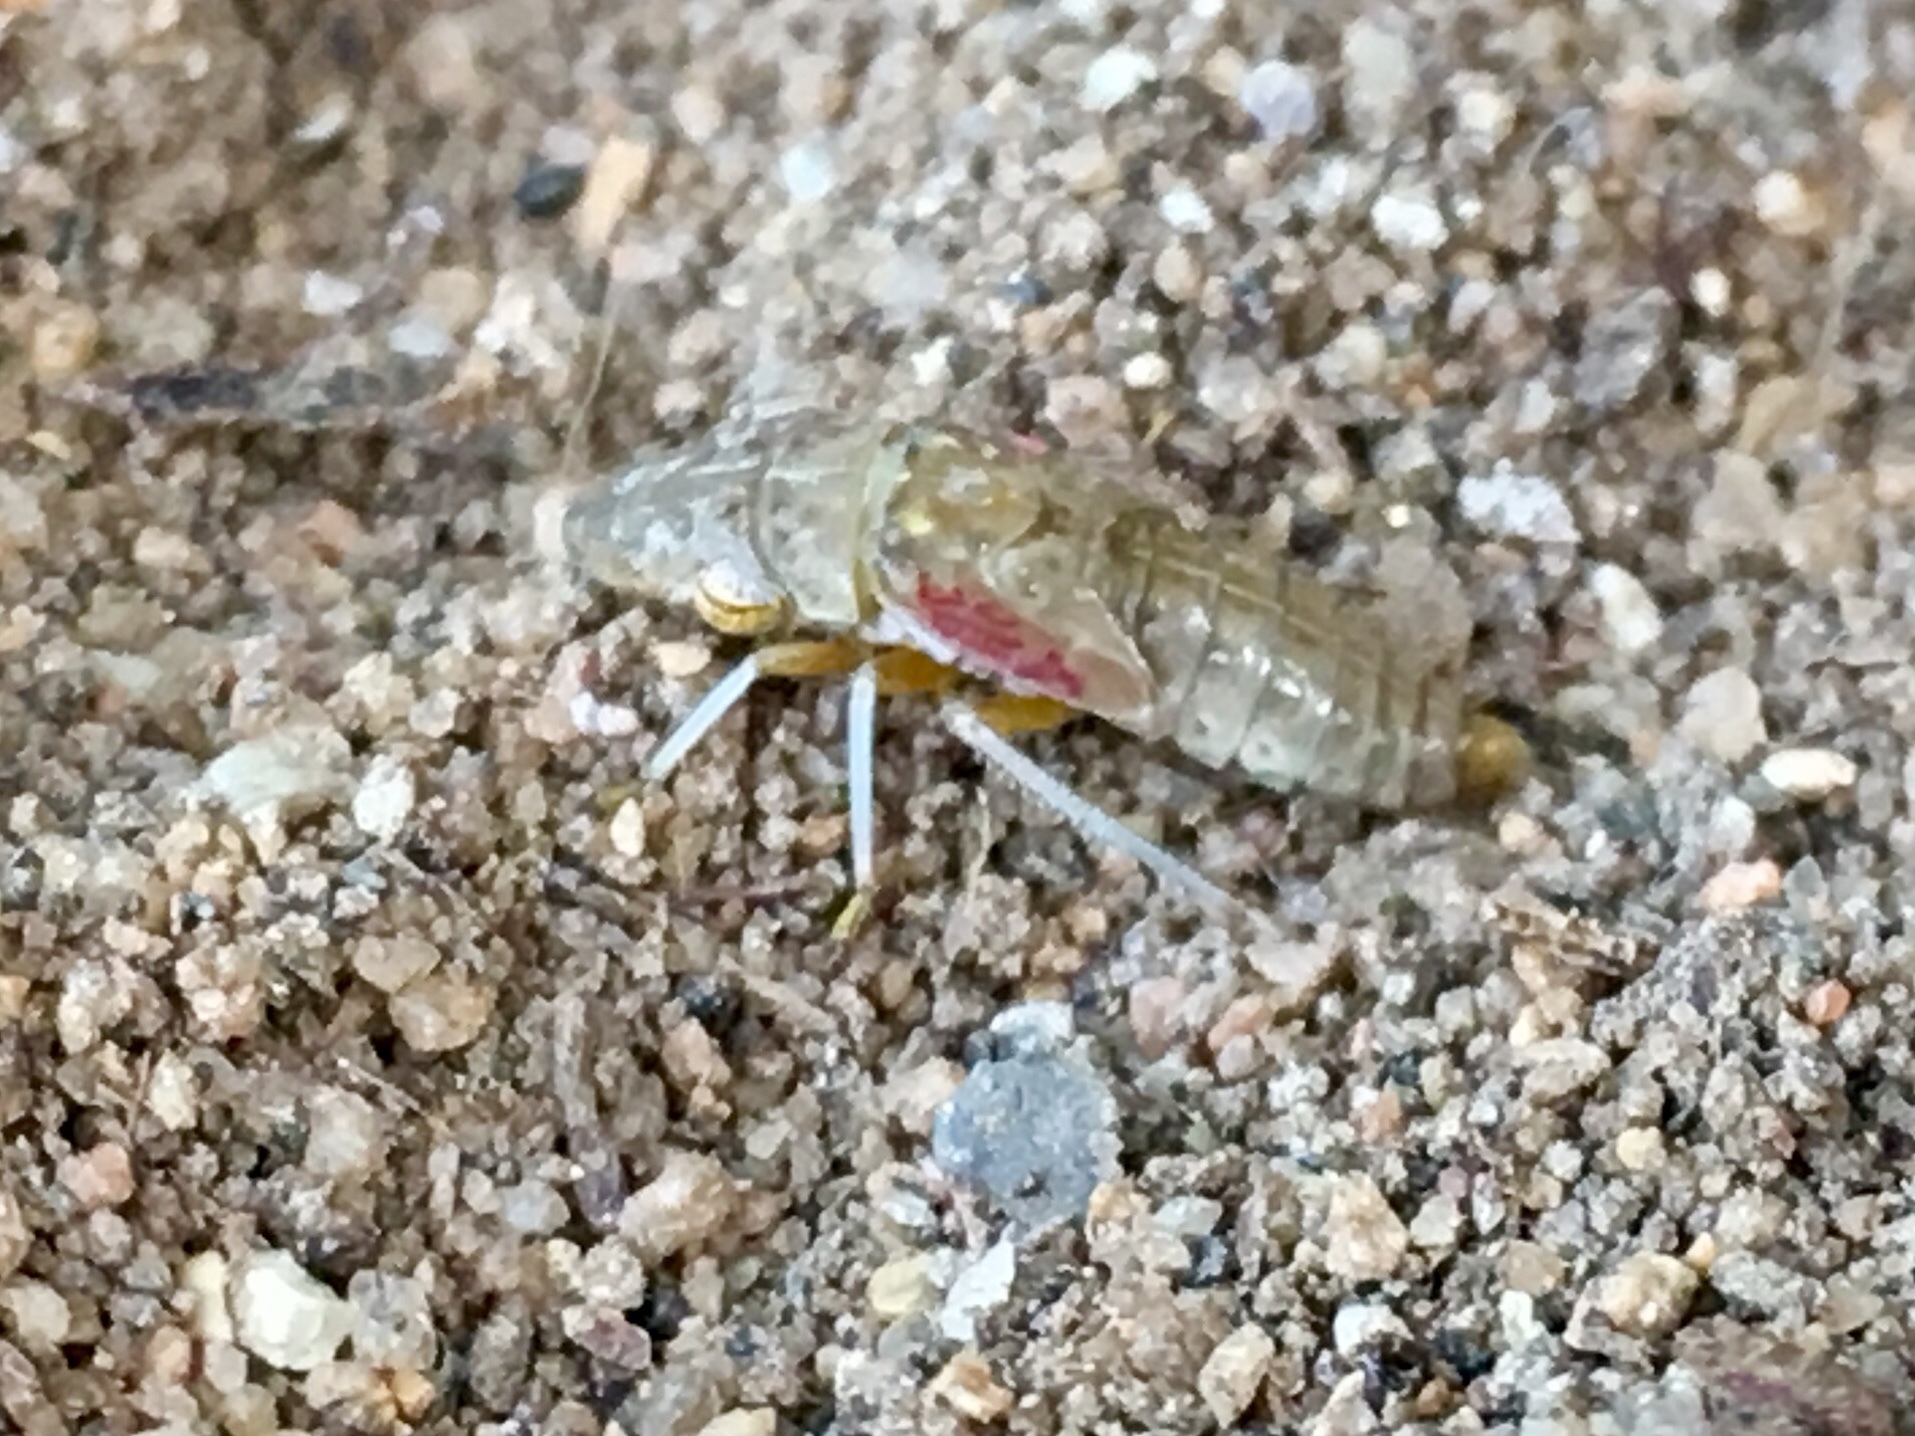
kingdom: Animalia
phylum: Arthropoda
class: Insecta
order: Hemiptera
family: Cicadellidae
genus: Homalodisca
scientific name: Homalodisca
